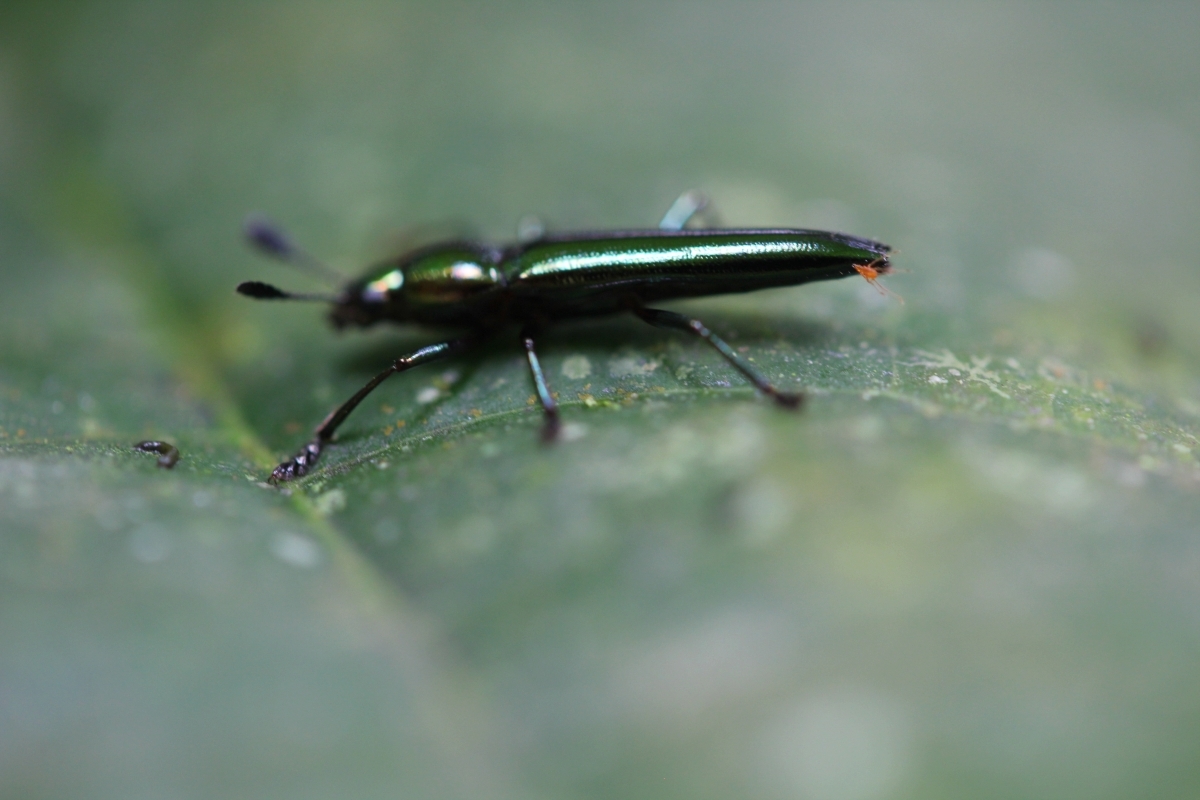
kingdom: Animalia
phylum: Arthropoda
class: Insecta
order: Coleoptera
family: Erotylidae
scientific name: Erotylidae
